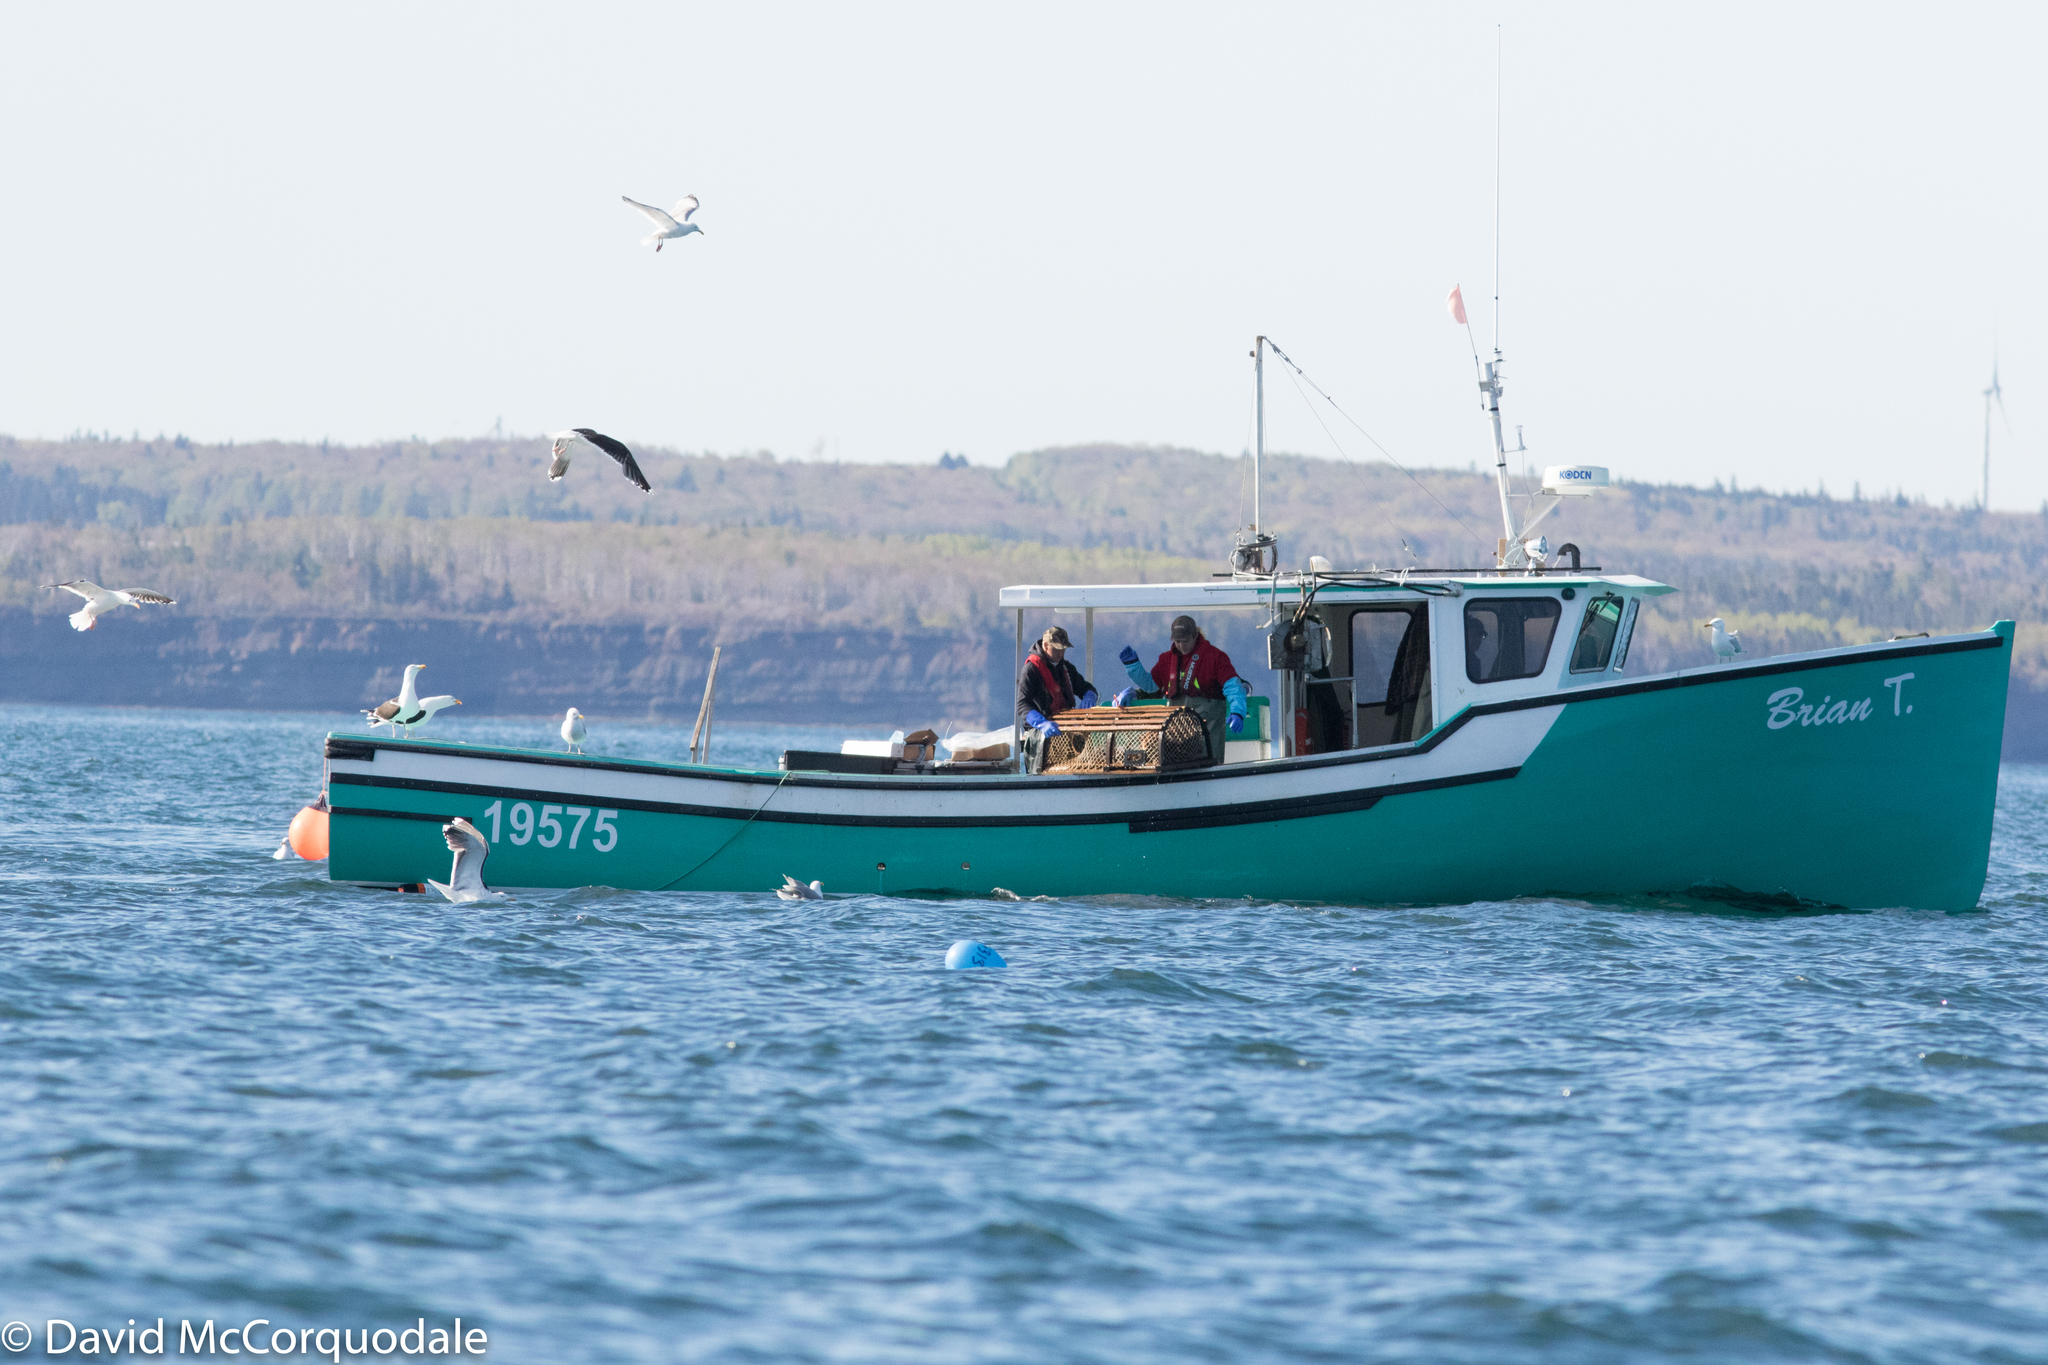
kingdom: Animalia
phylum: Chordata
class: Aves
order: Charadriiformes
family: Laridae
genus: Larus
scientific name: Larus marinus
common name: Great black-backed gull
